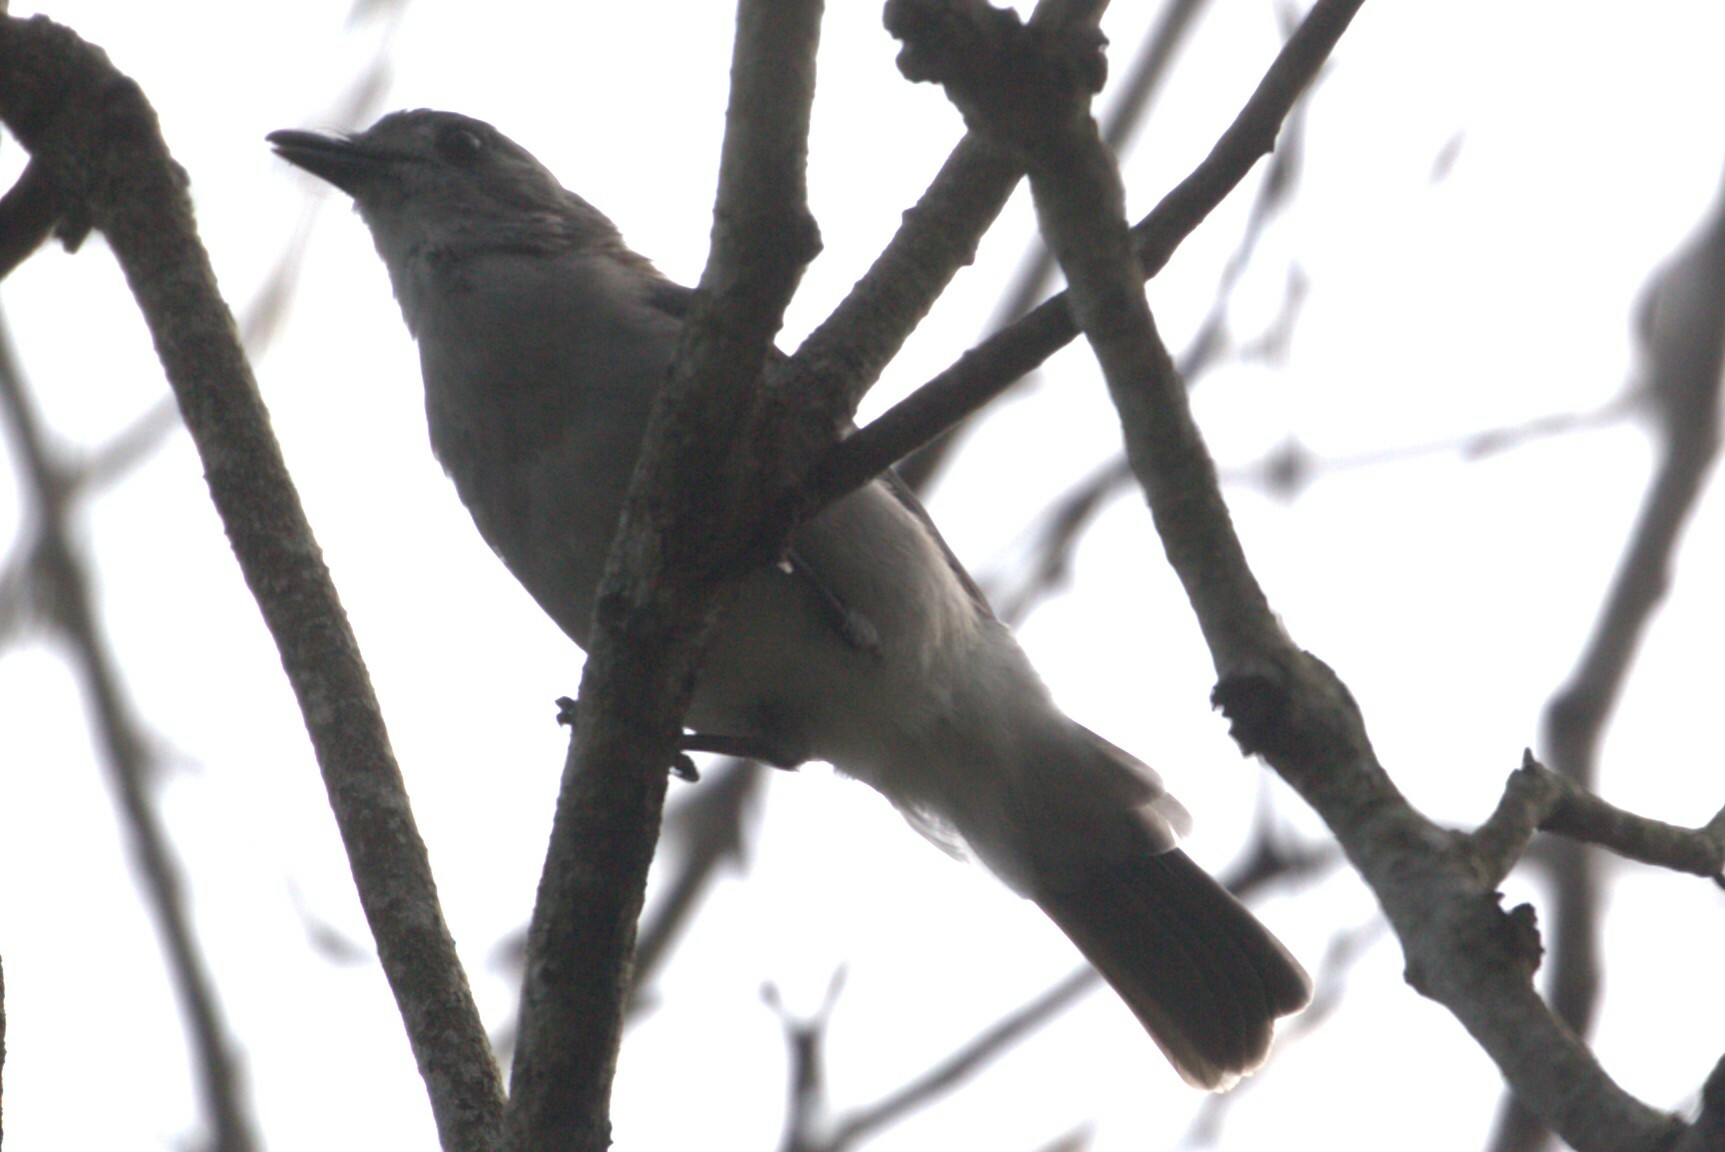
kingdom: Animalia
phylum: Chordata
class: Aves
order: Passeriformes
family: Pachycephalidae
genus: Colluricincla
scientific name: Colluricincla harmonica
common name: Grey shrikethrush
